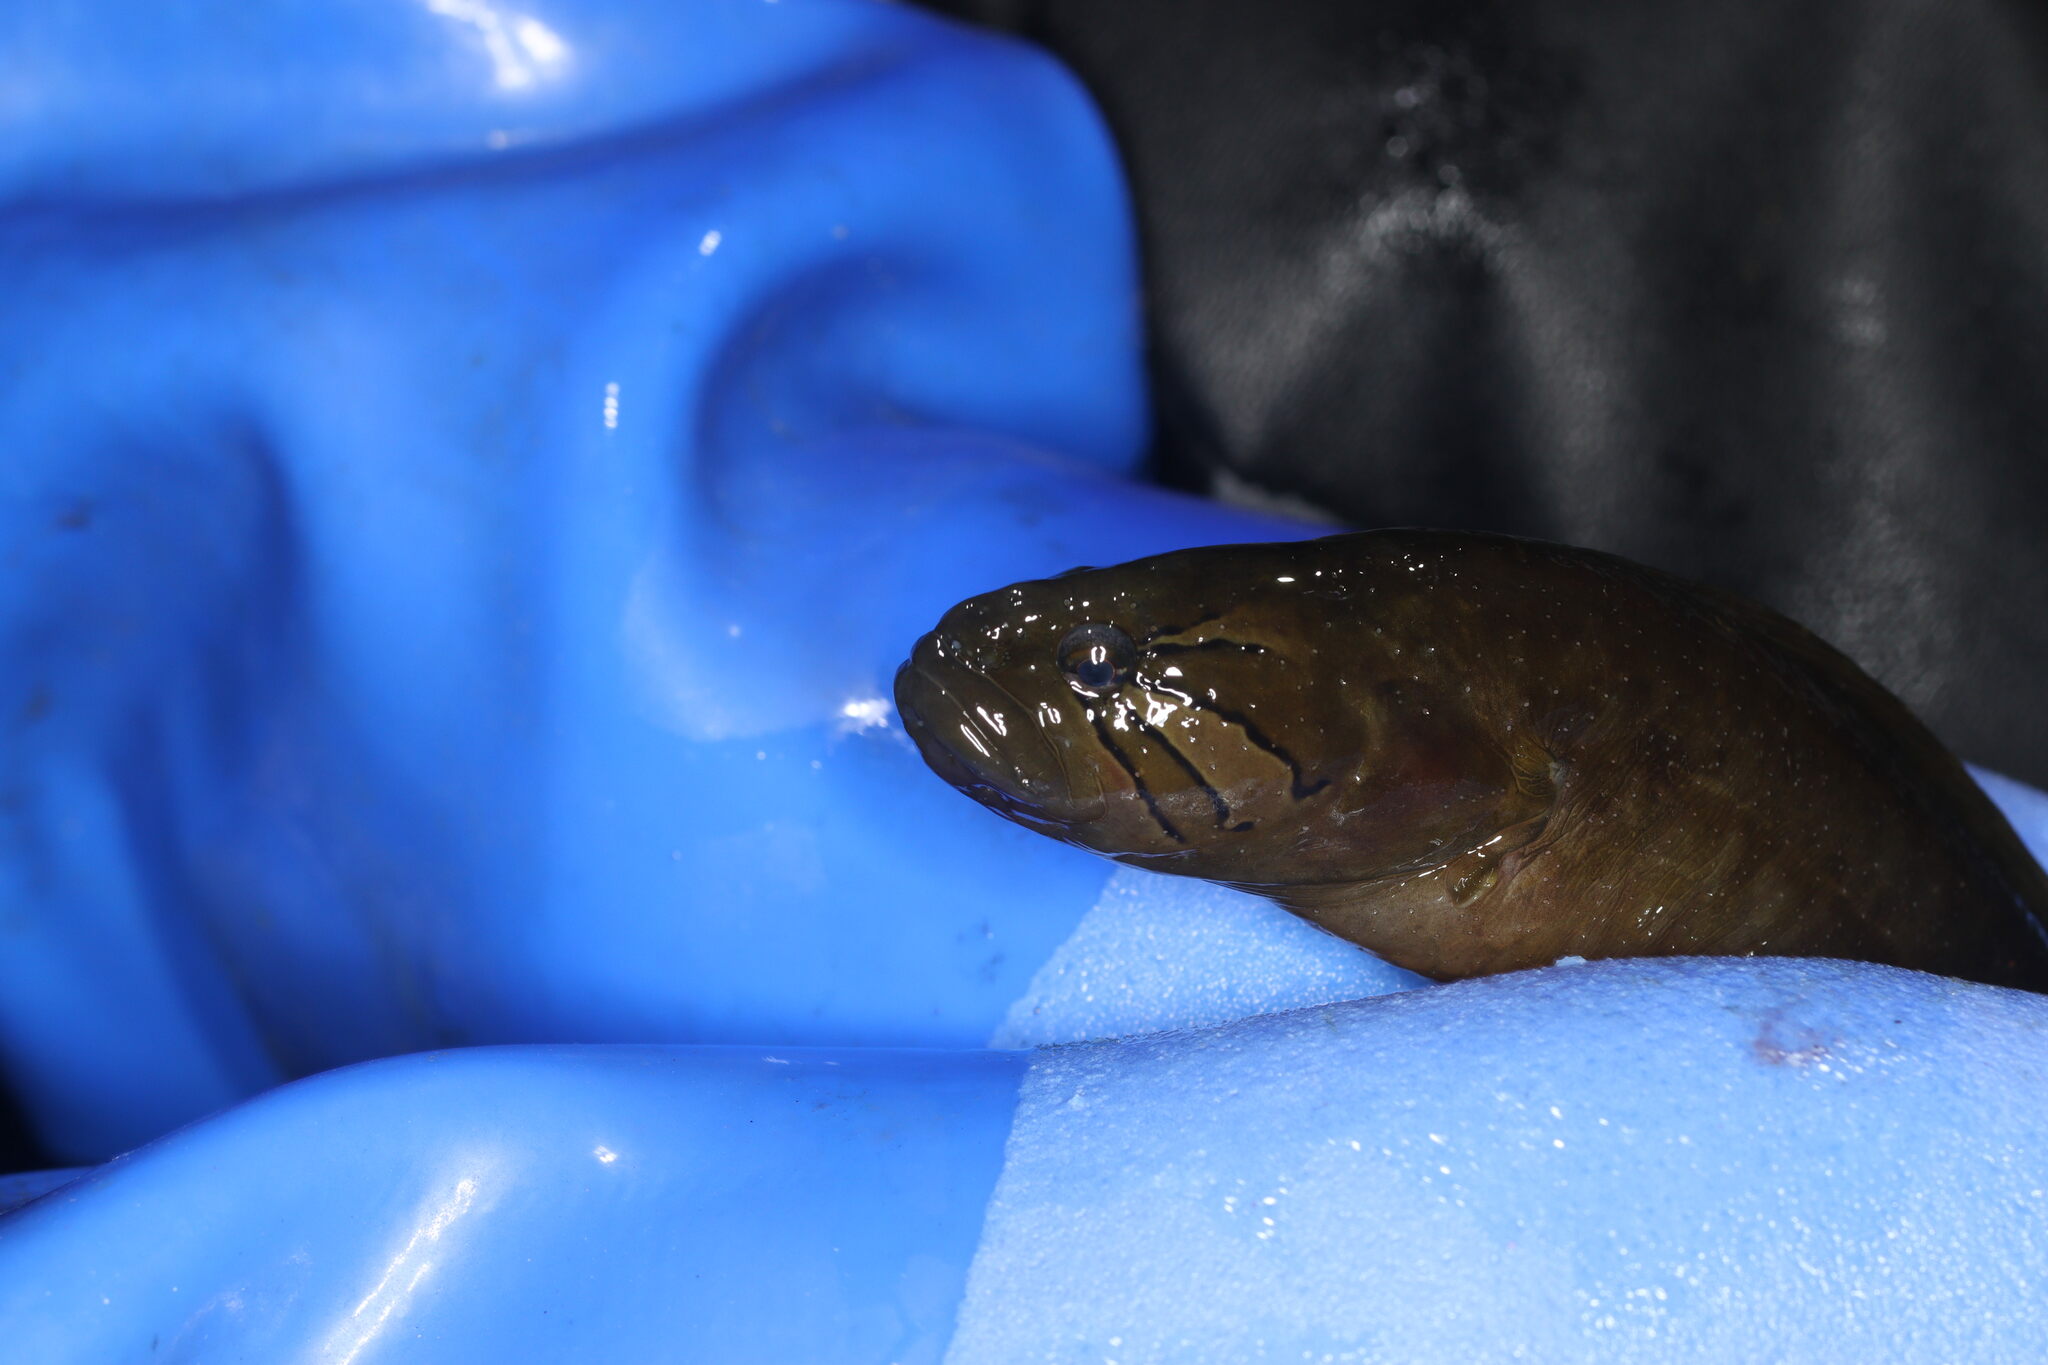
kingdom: Animalia
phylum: Chordata
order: Perciformes
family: Stichaeidae
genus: Xiphister
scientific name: Xiphister mucosus
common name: Rock prickleback
